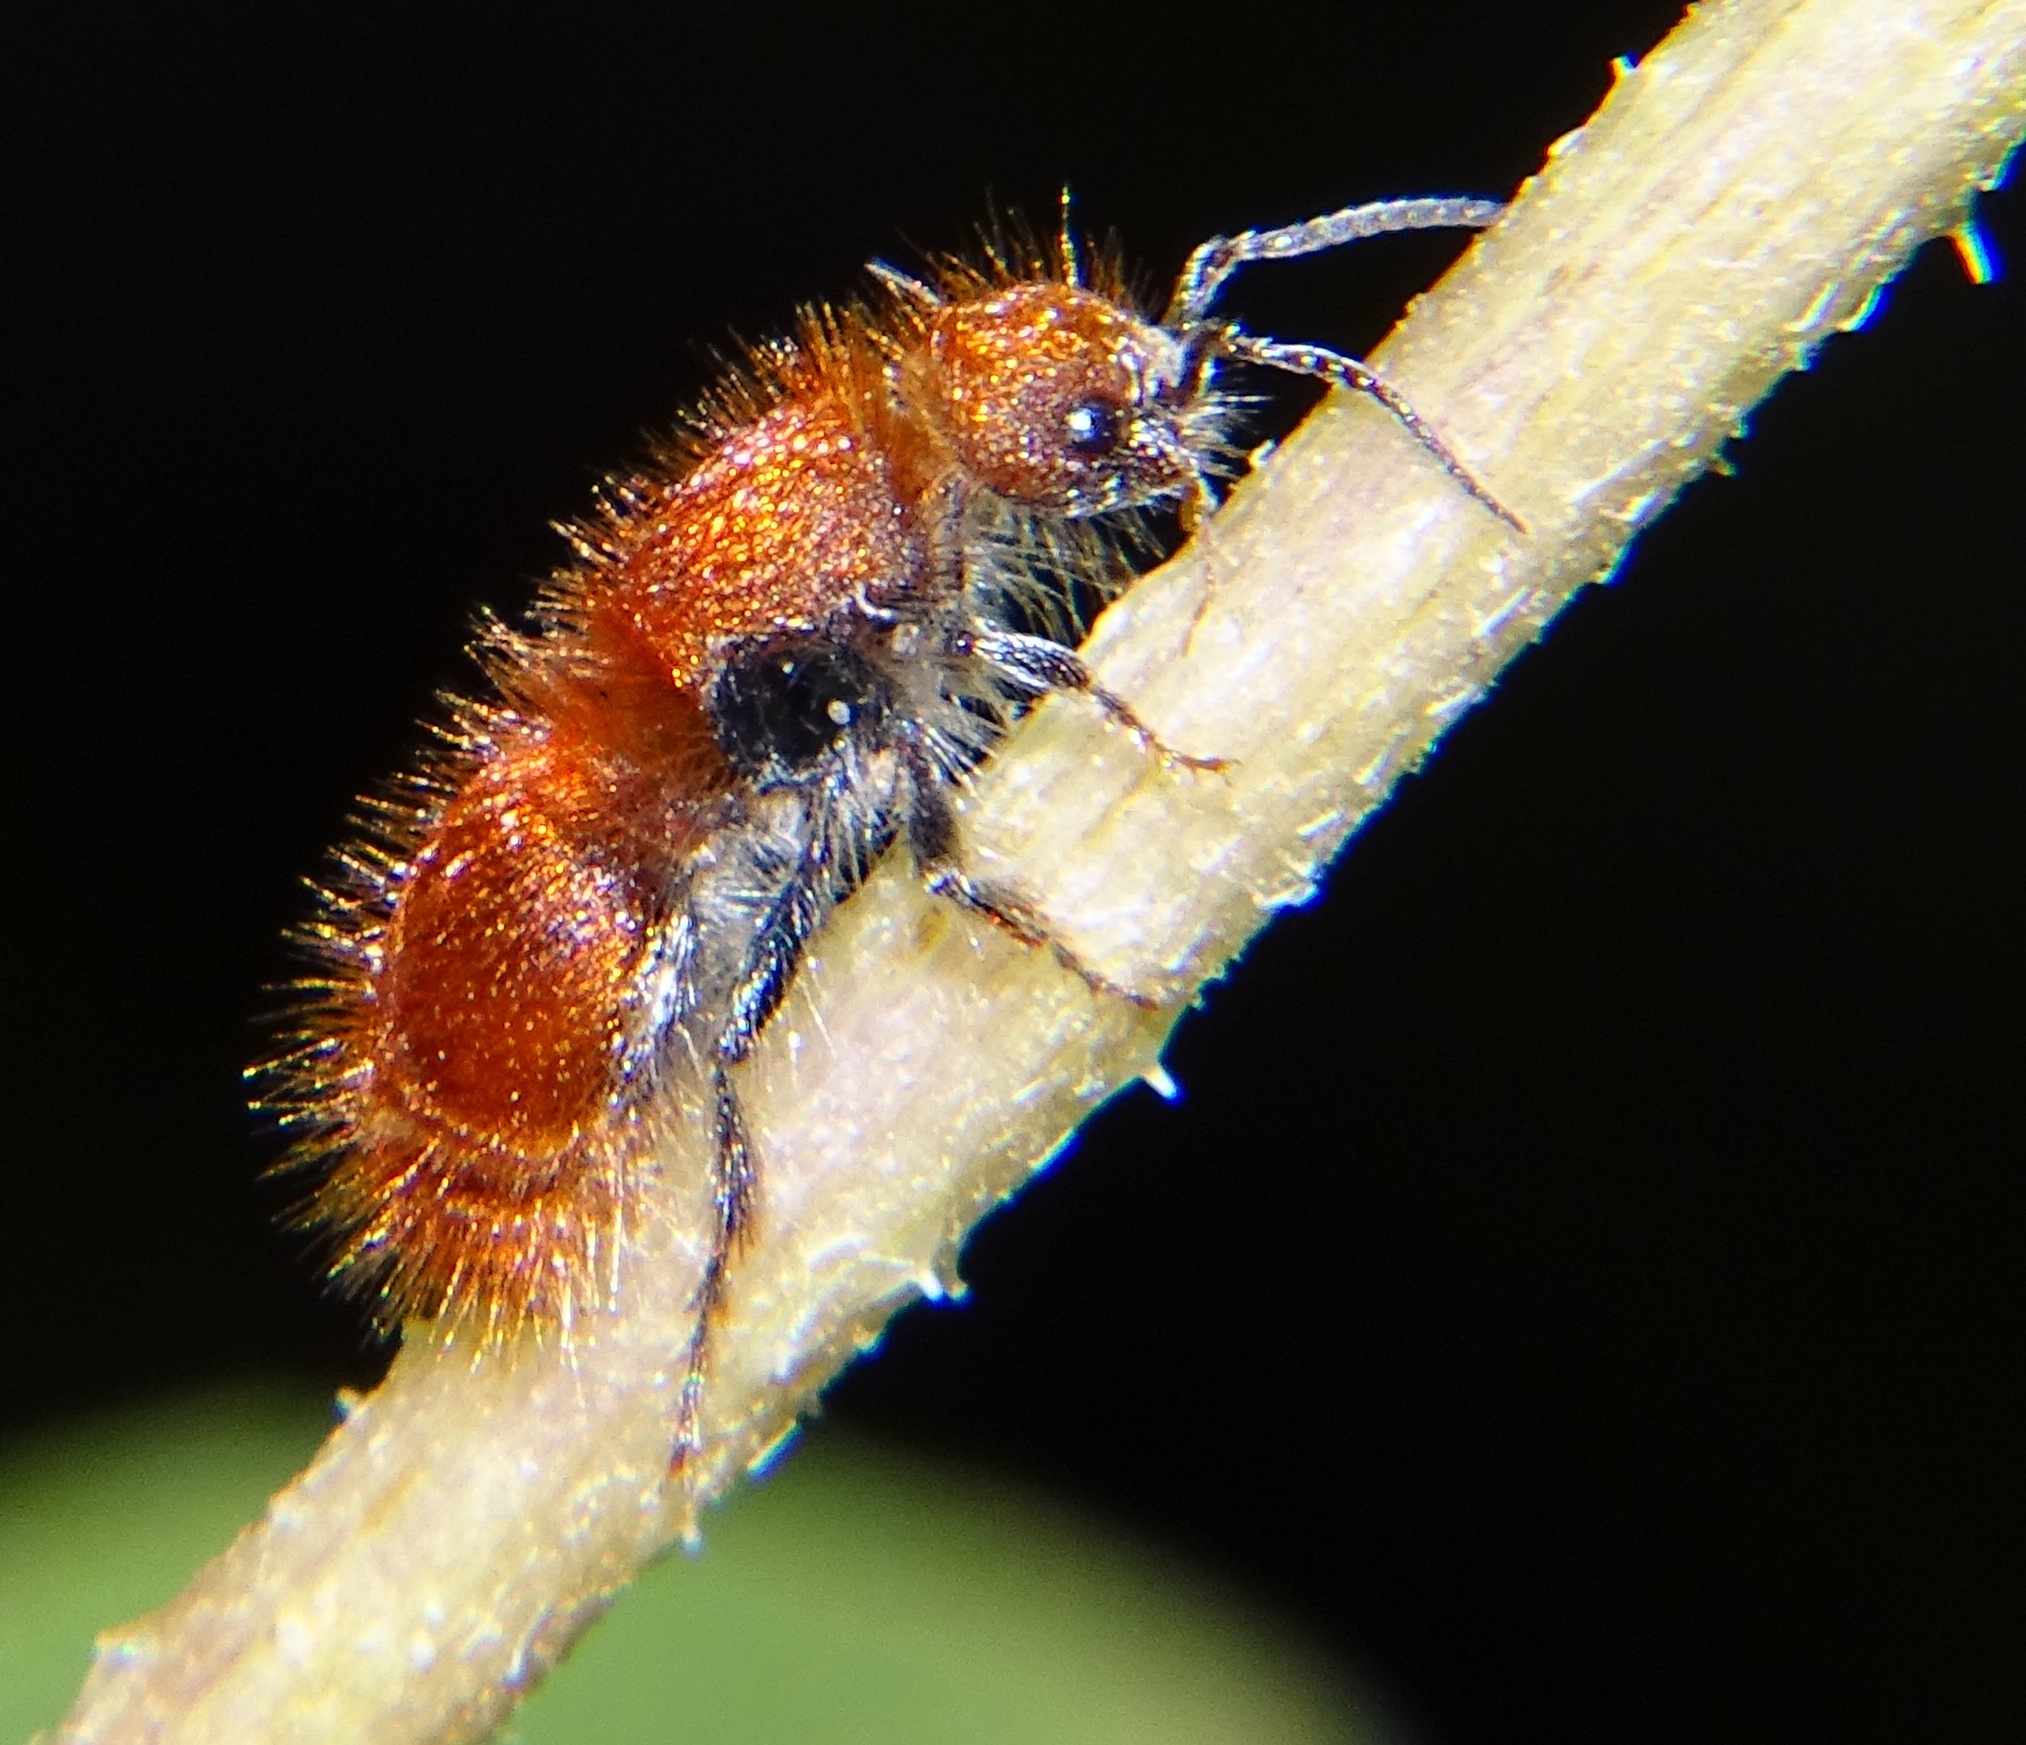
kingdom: Animalia
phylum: Arthropoda
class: Insecta
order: Hymenoptera
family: Mutillidae
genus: Sphaeropthalma
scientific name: Sphaeropthalma unicolor
